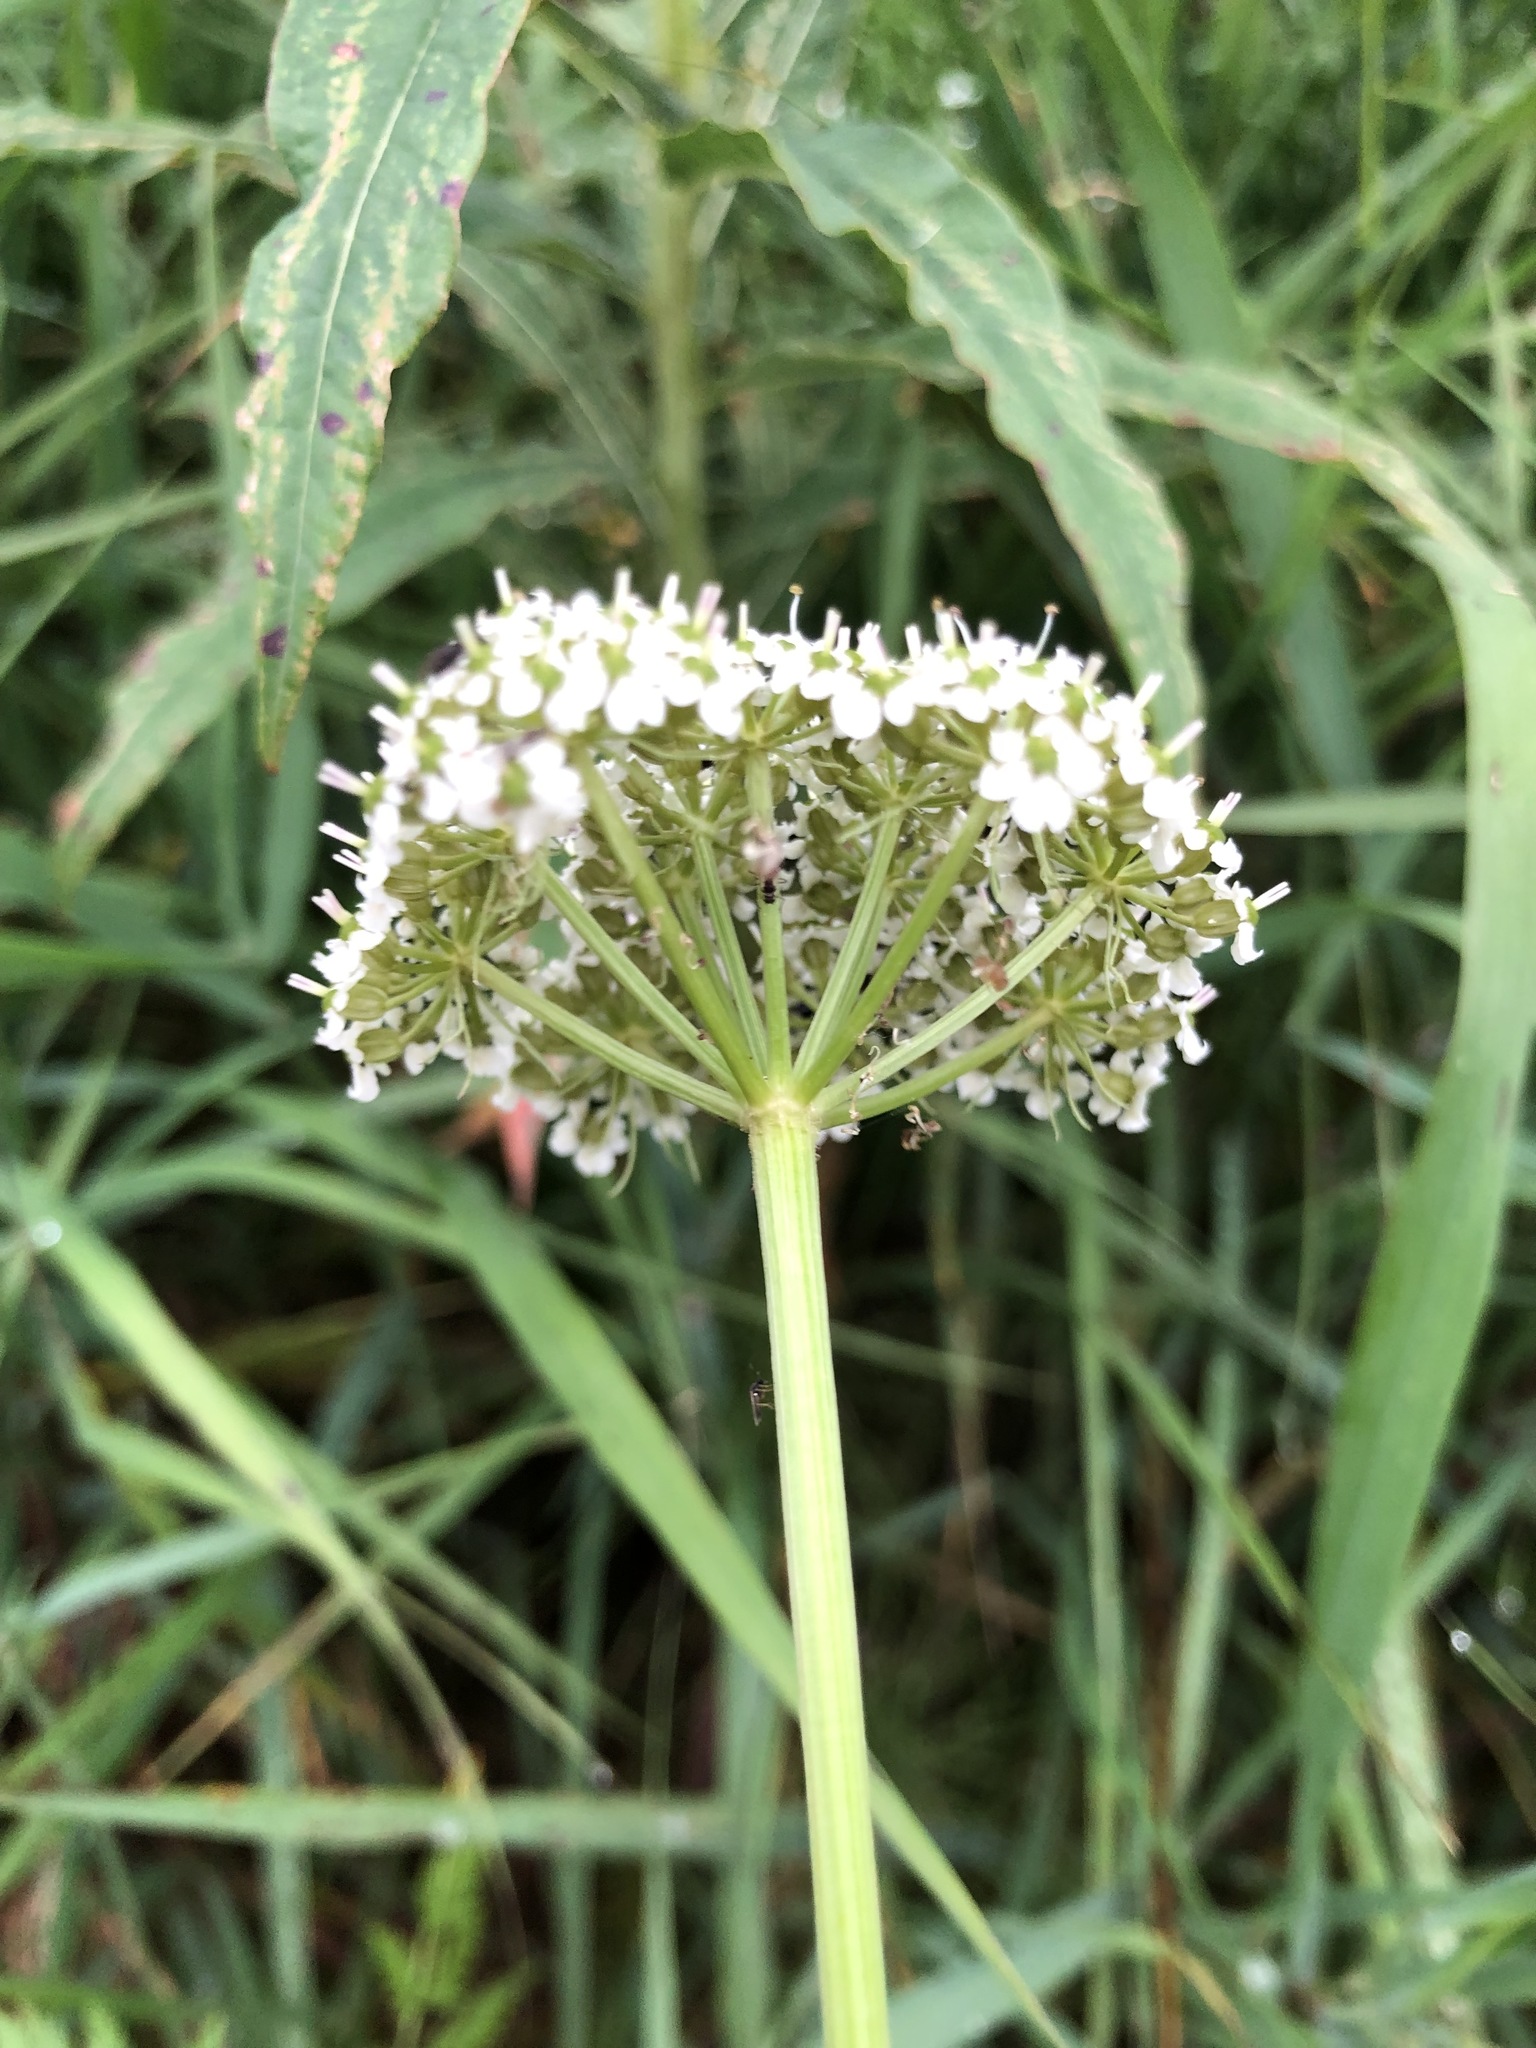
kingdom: Plantae
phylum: Tracheophyta
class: Magnoliopsida
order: Apiales
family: Apiaceae
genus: Conioselinum
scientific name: Conioselinum tataricum
